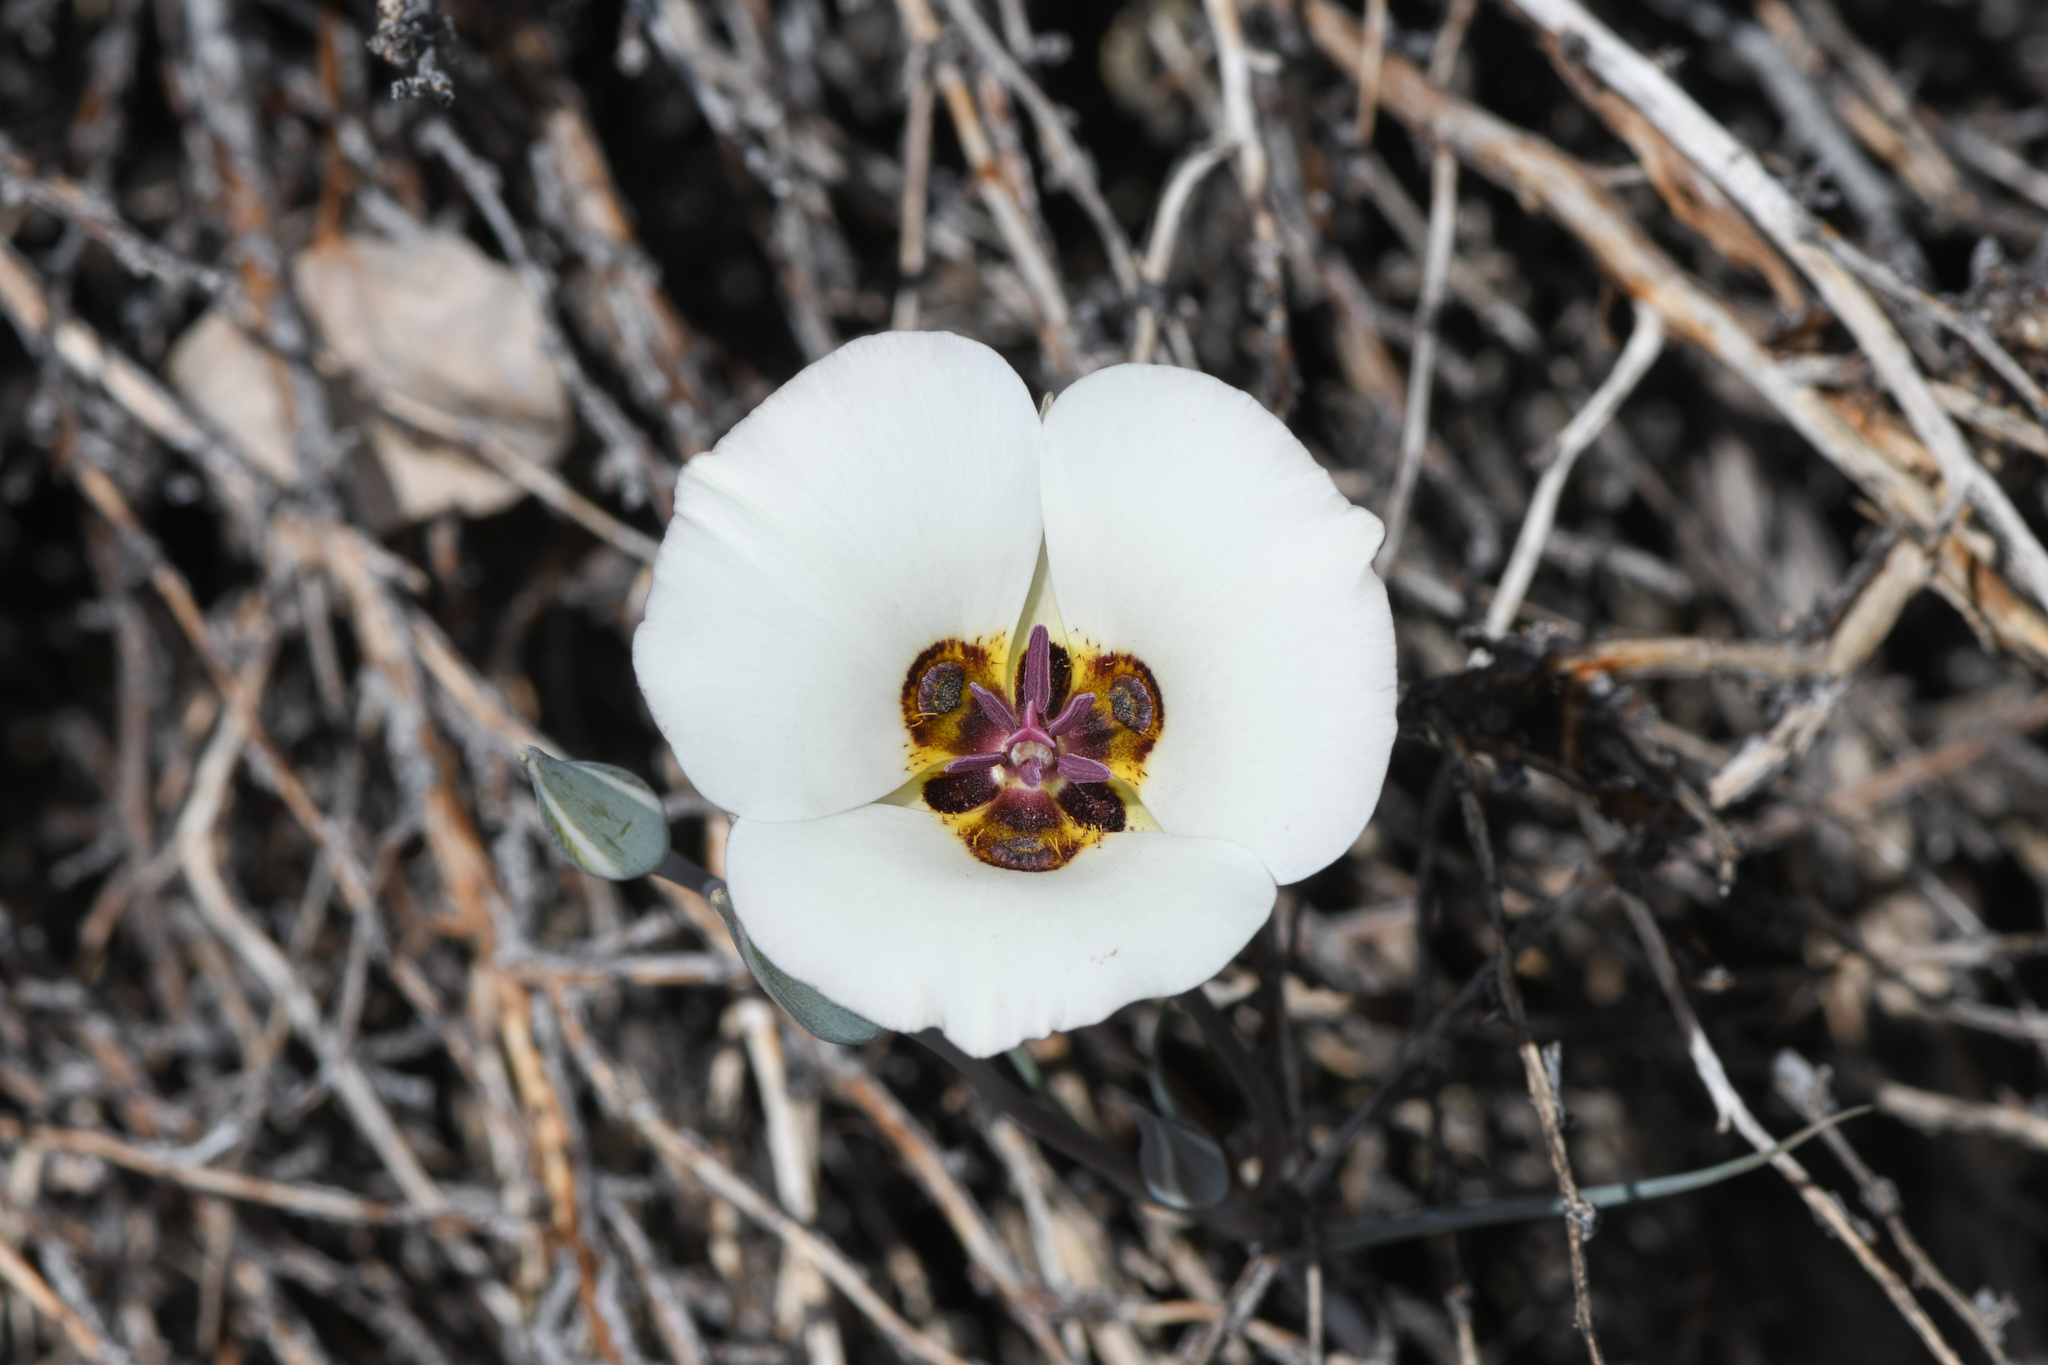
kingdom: Plantae
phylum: Tracheophyta
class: Liliopsida
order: Liliales
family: Liliaceae
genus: Calochortus
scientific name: Calochortus bruneaunis
